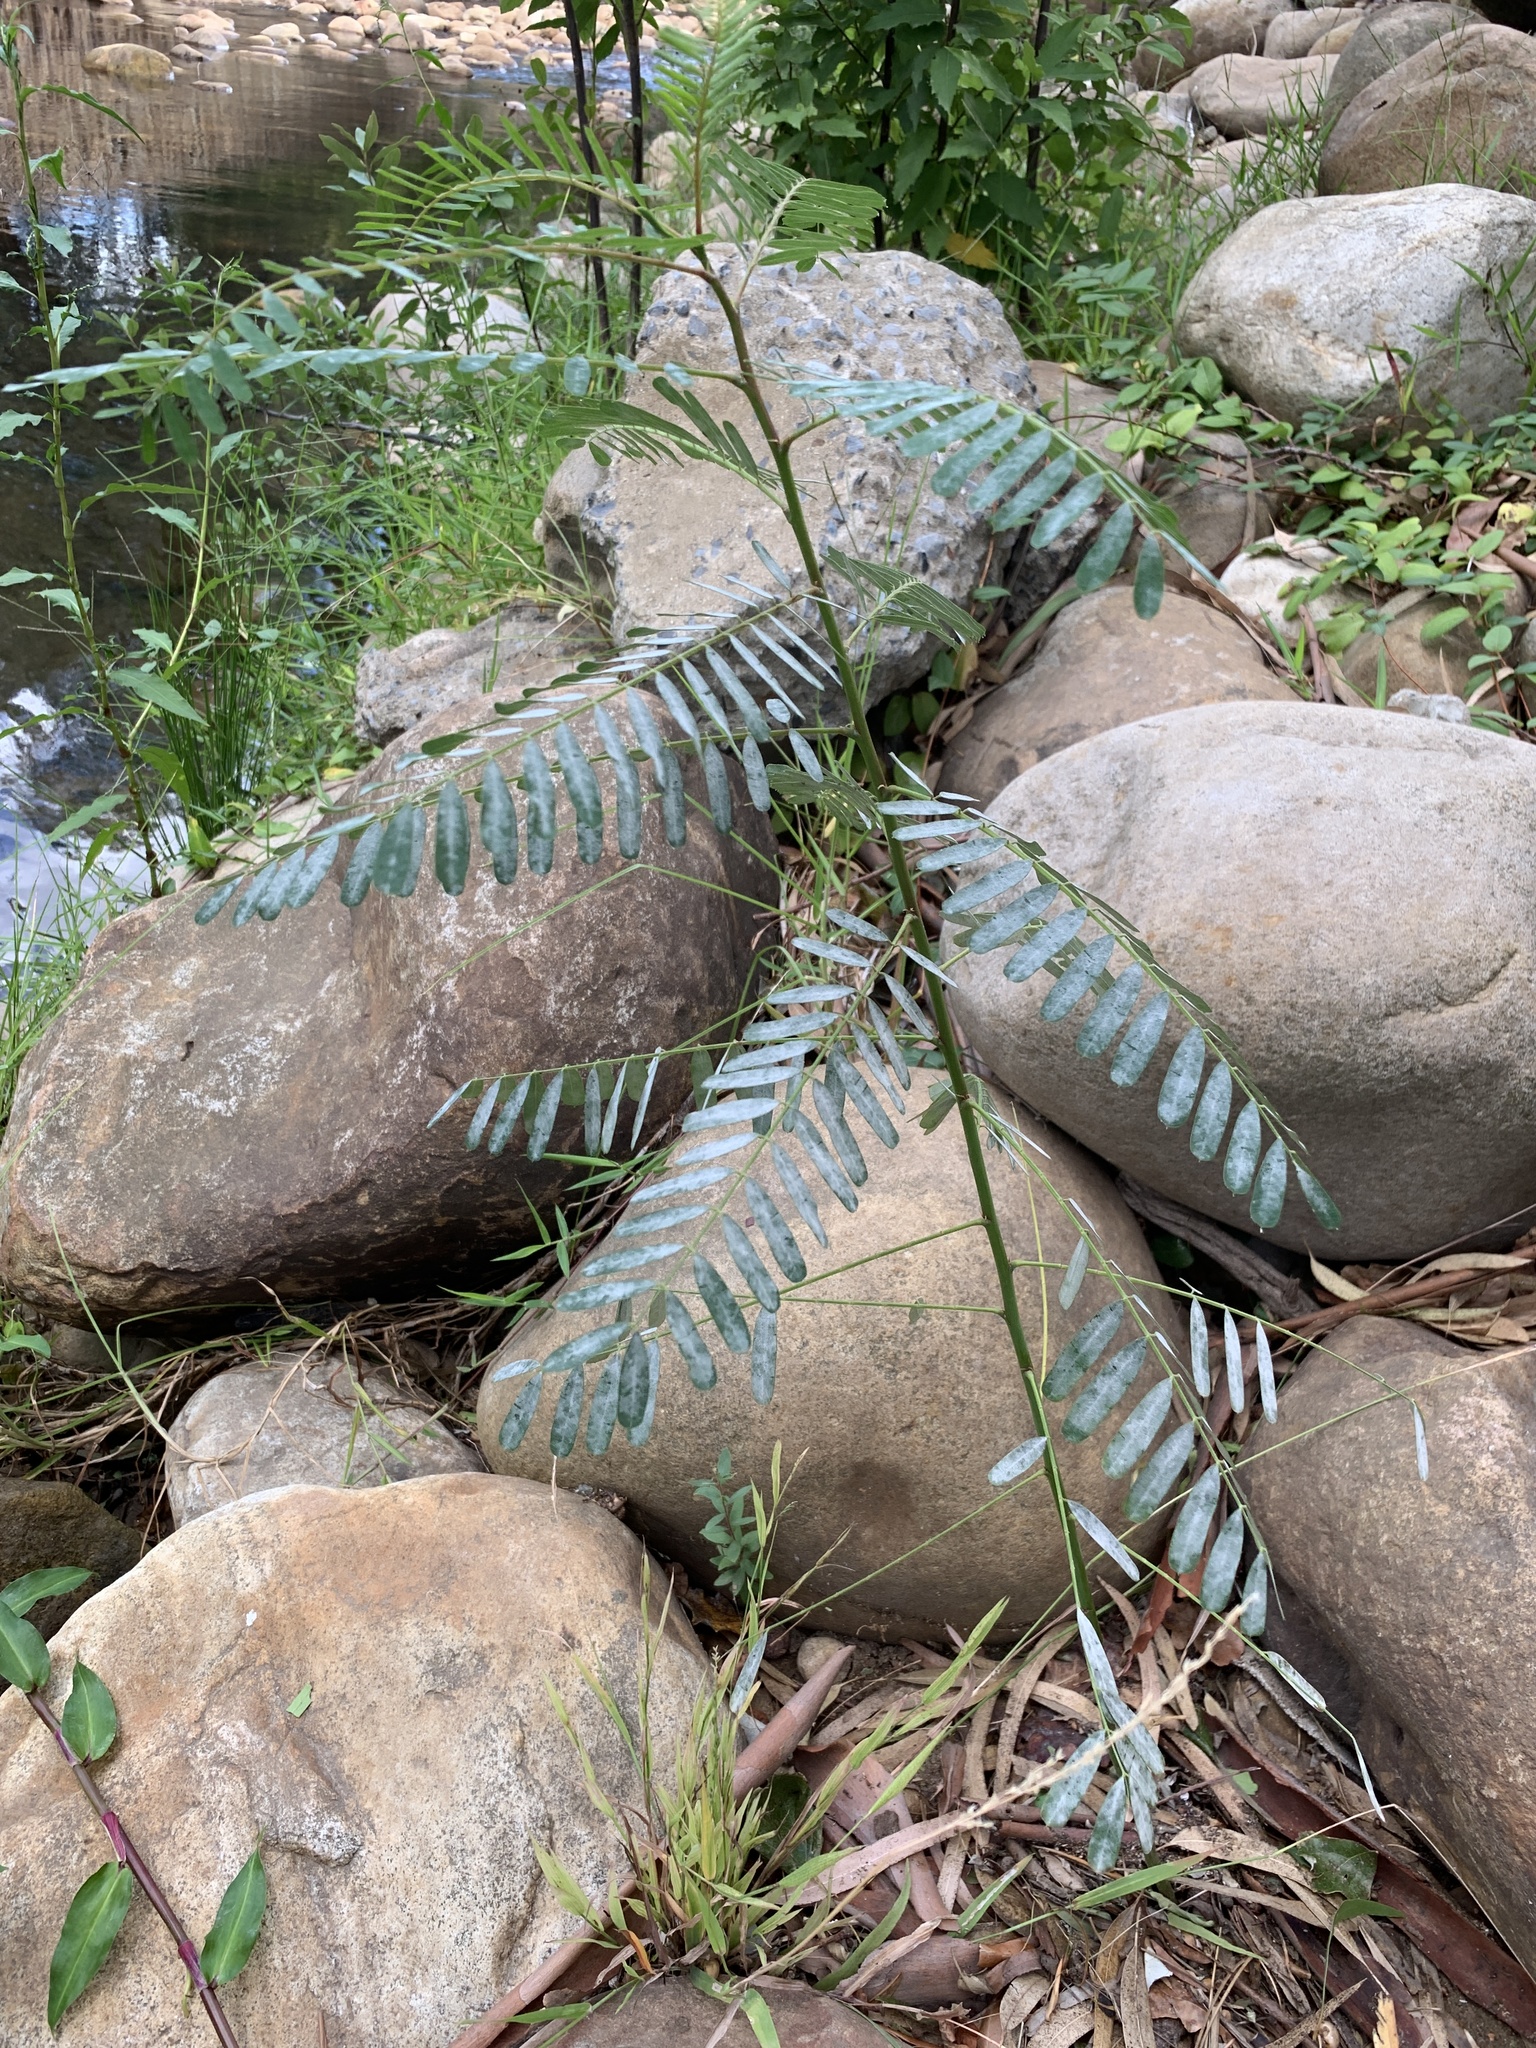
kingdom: Plantae
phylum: Tracheophyta
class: Magnoliopsida
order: Fabales
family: Fabaceae
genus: Sesbania
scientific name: Sesbania punicea
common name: Rattlebox
